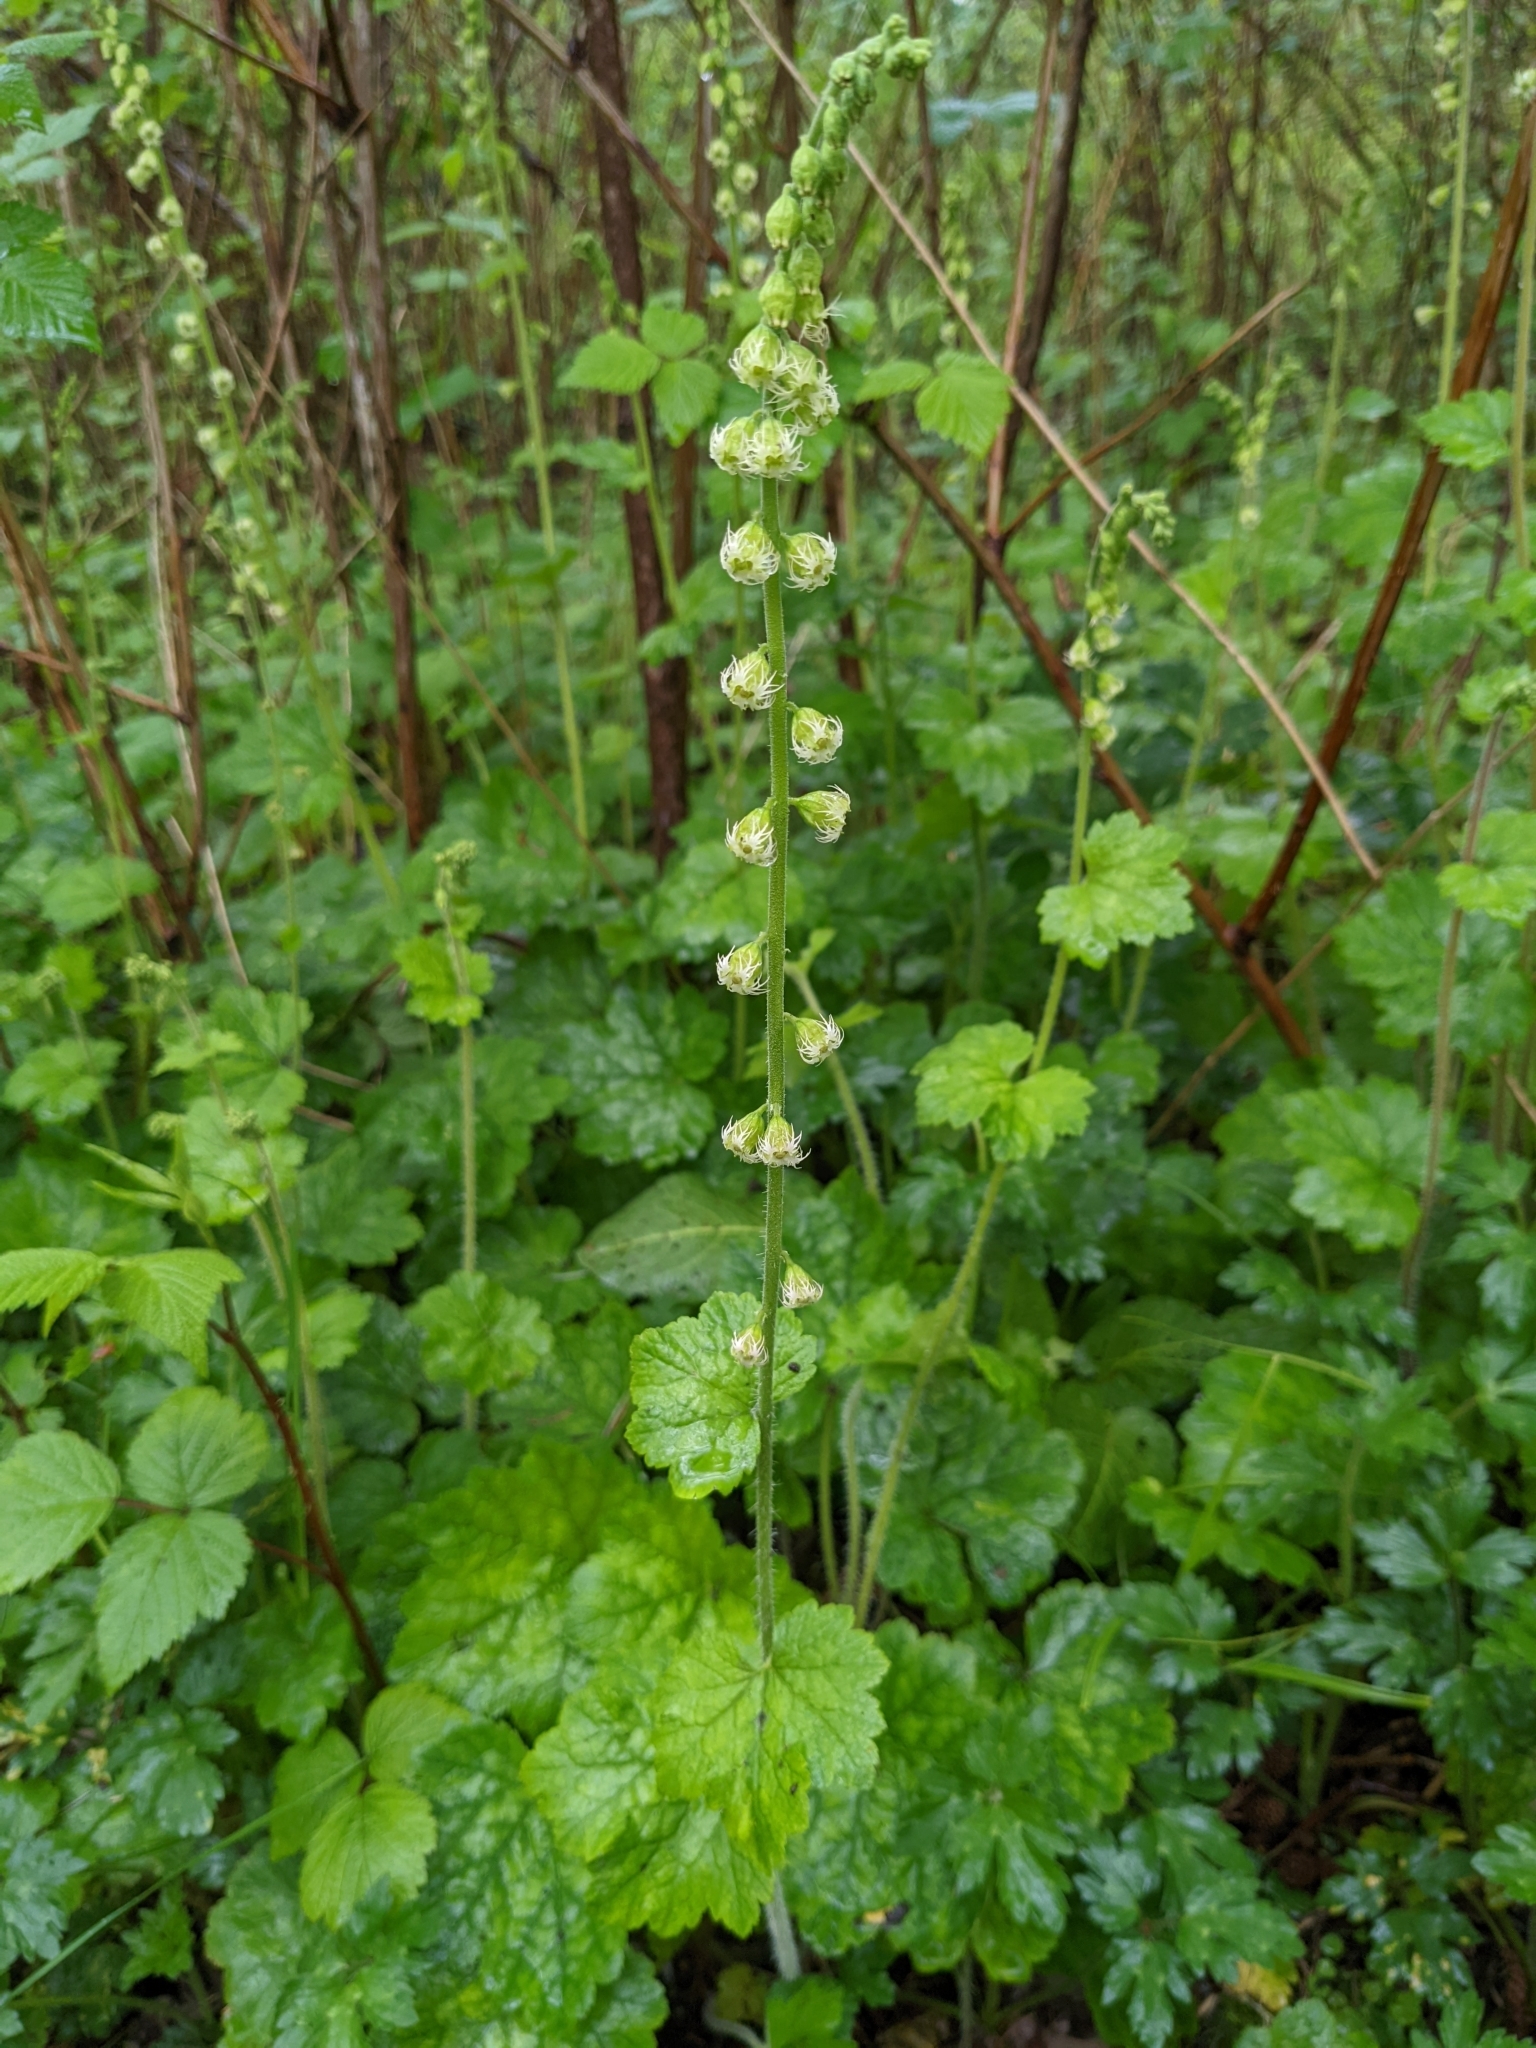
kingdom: Plantae
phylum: Tracheophyta
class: Magnoliopsida
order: Saxifragales
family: Saxifragaceae
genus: Tellima
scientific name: Tellima grandiflora
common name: Fringecups
